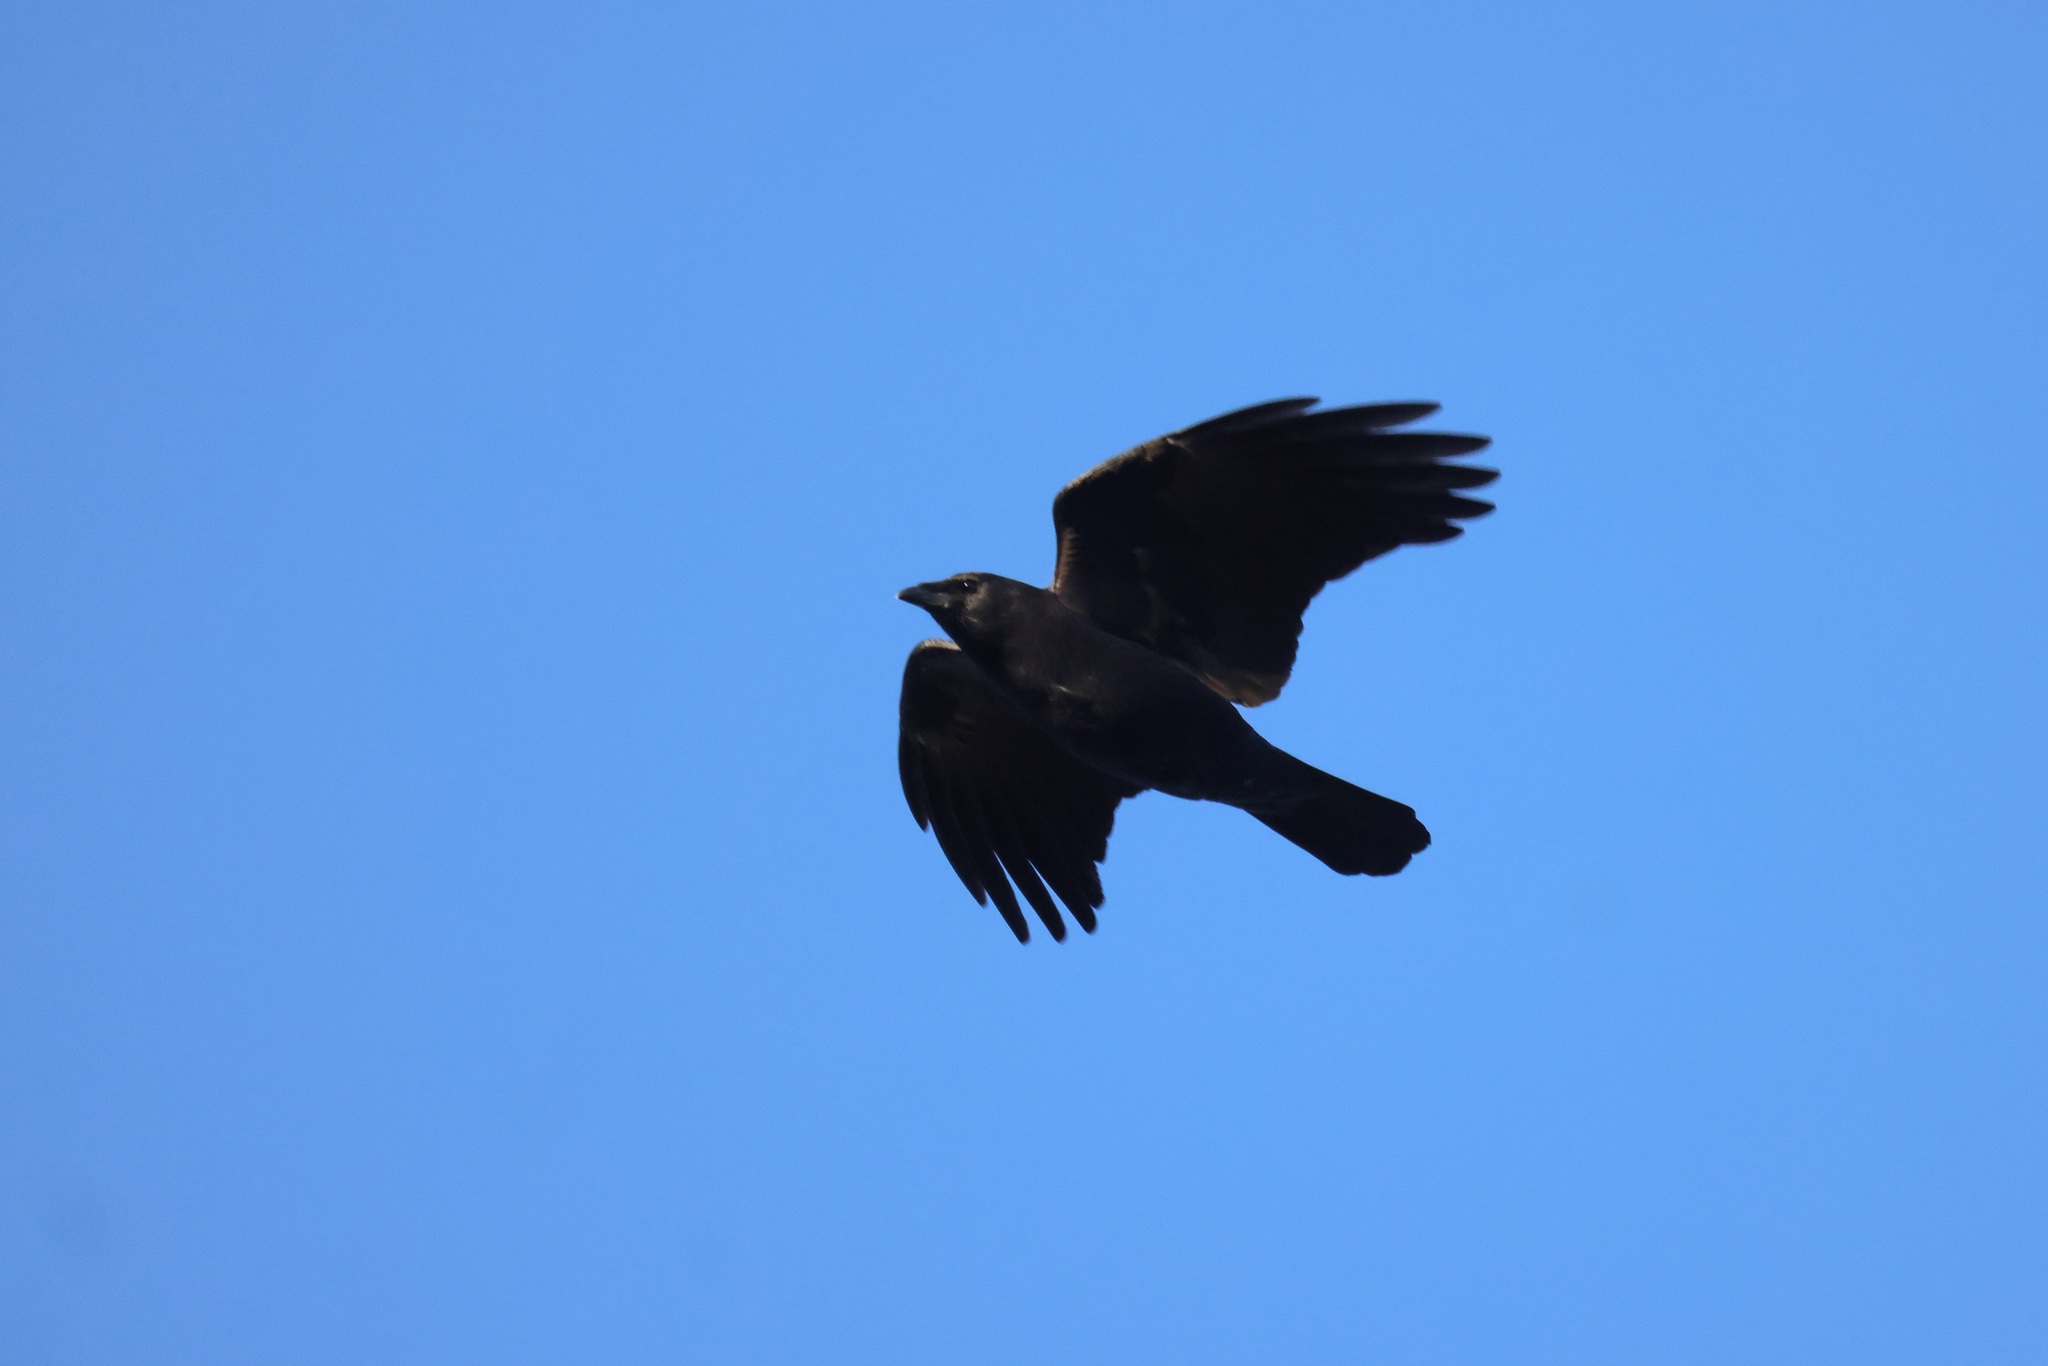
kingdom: Animalia
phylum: Chordata
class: Aves
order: Passeriformes
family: Corvidae
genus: Corvus
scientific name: Corvus brachyrhynchos
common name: American crow
